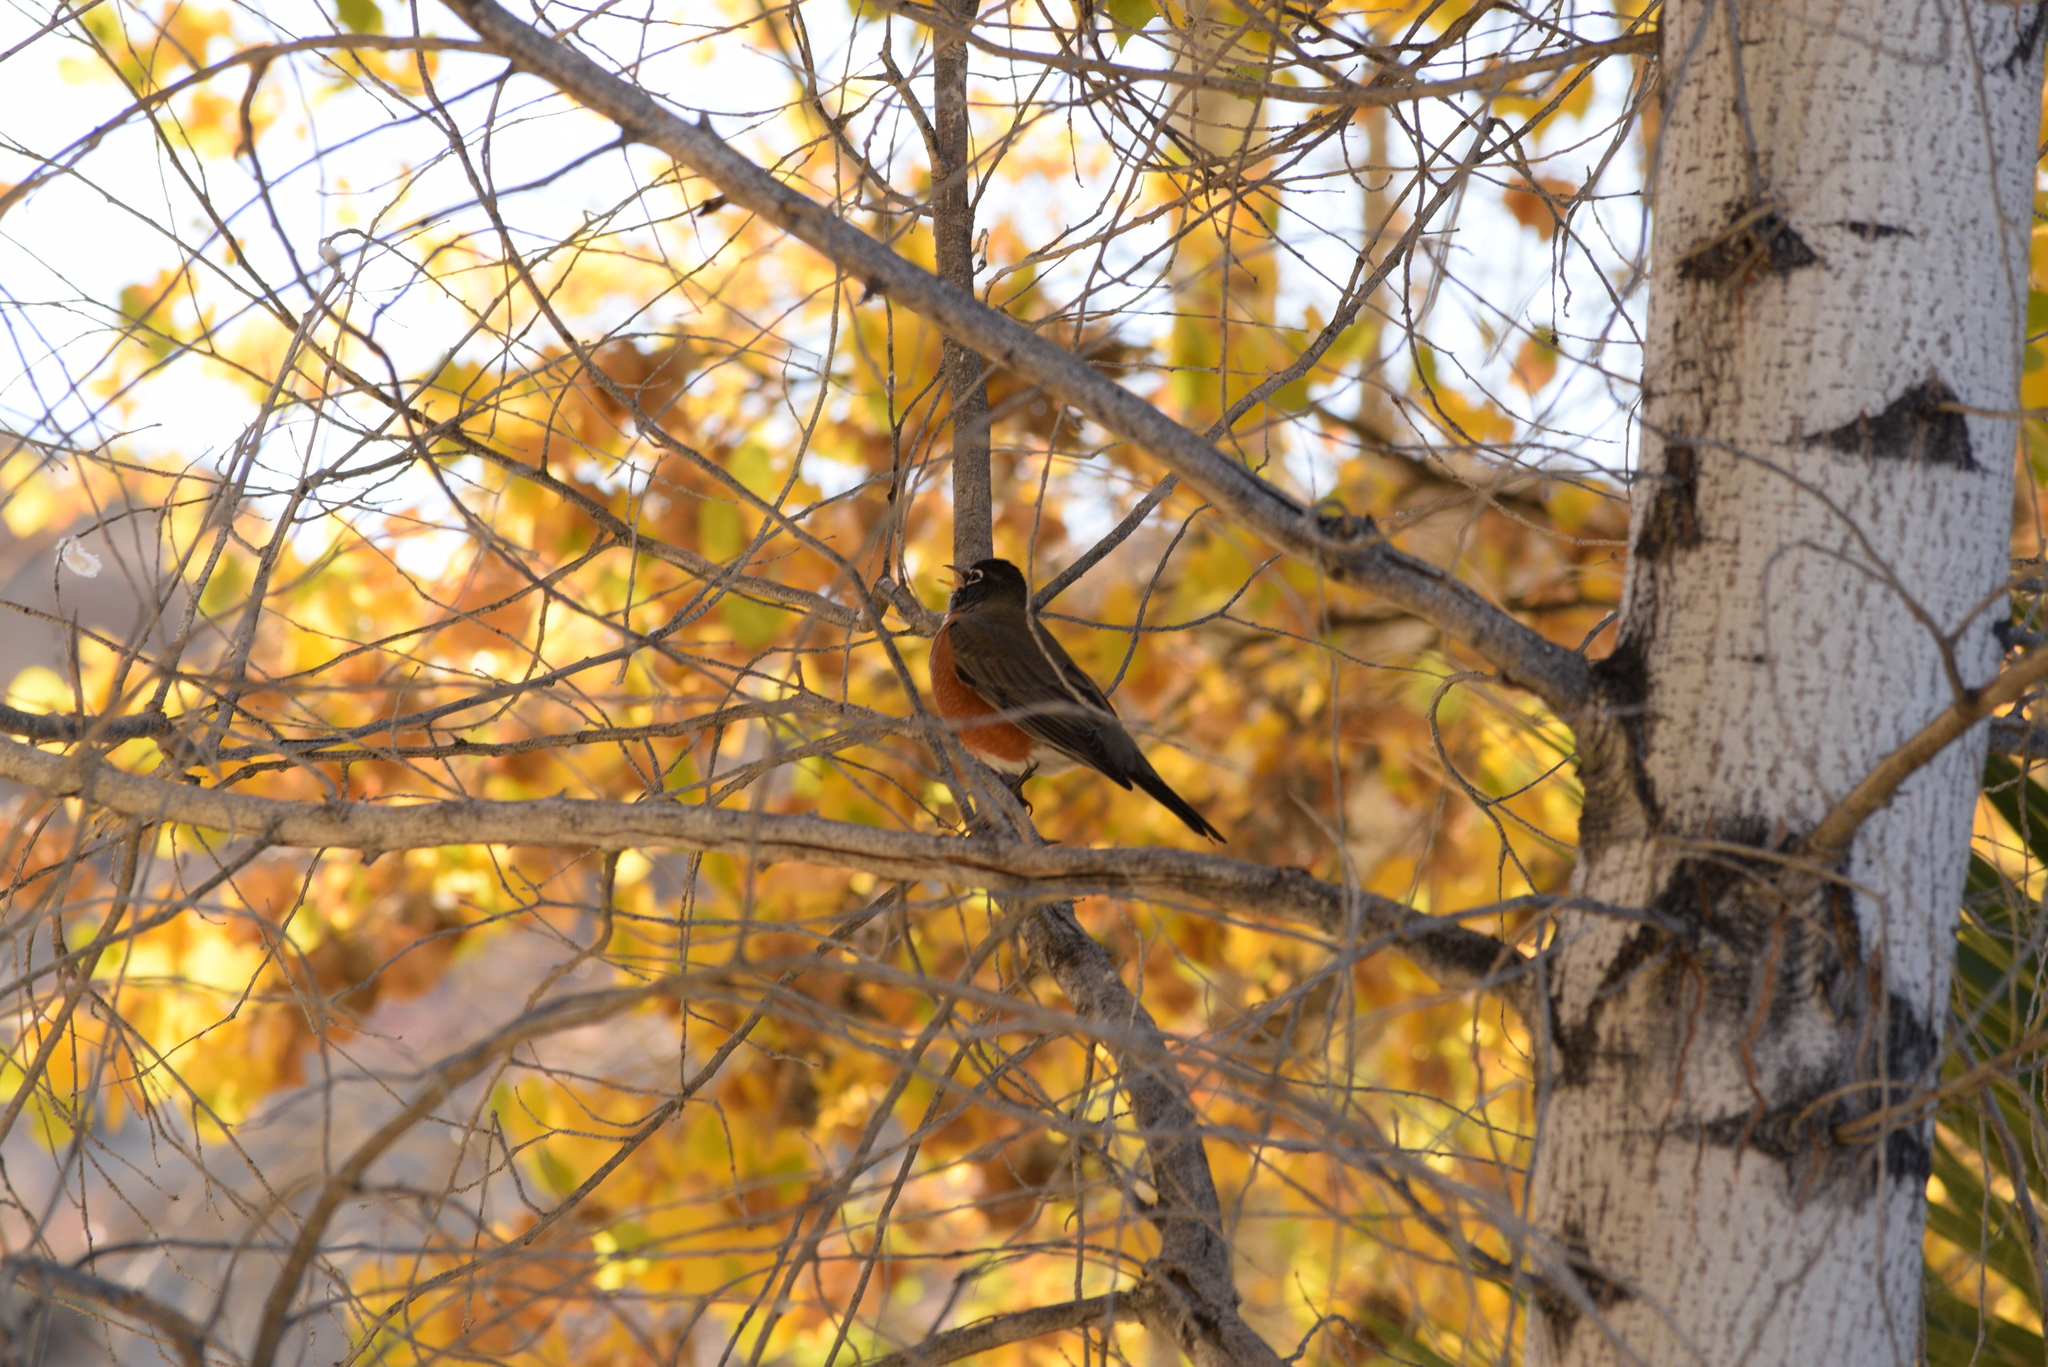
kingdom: Animalia
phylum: Chordata
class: Aves
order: Passeriformes
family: Turdidae
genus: Turdus
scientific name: Turdus migratorius
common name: American robin
